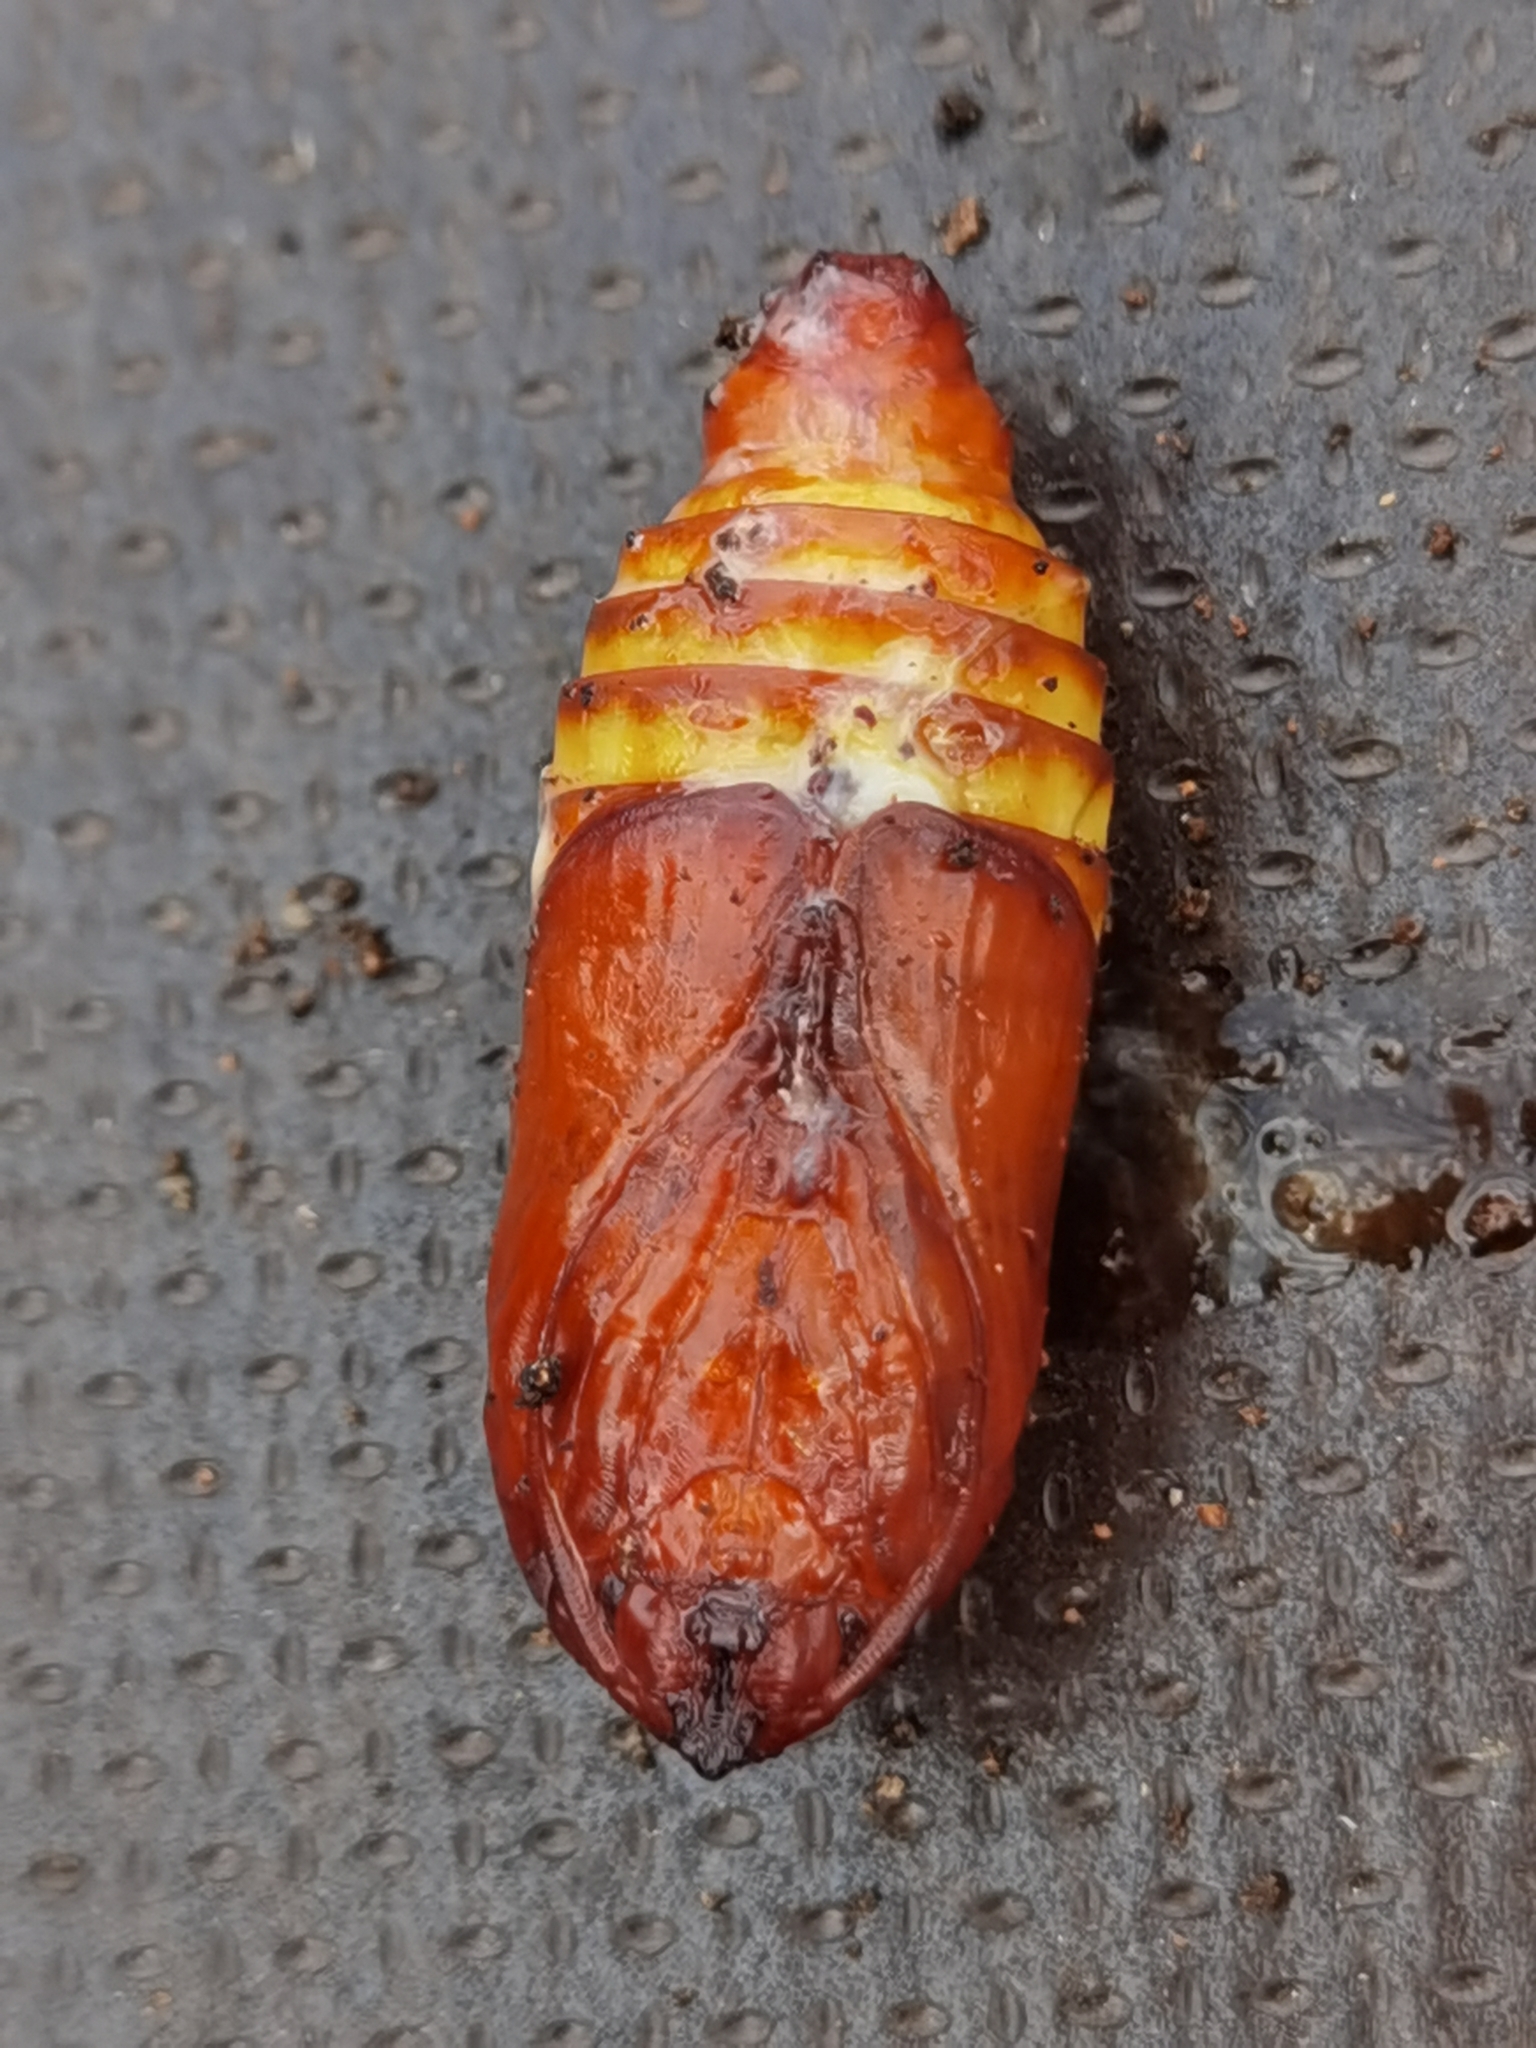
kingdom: Animalia
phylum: Arthropoda
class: Insecta
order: Lepidoptera
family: Cossidae
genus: Cossus
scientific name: Cossus cossus
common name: Goat moth
